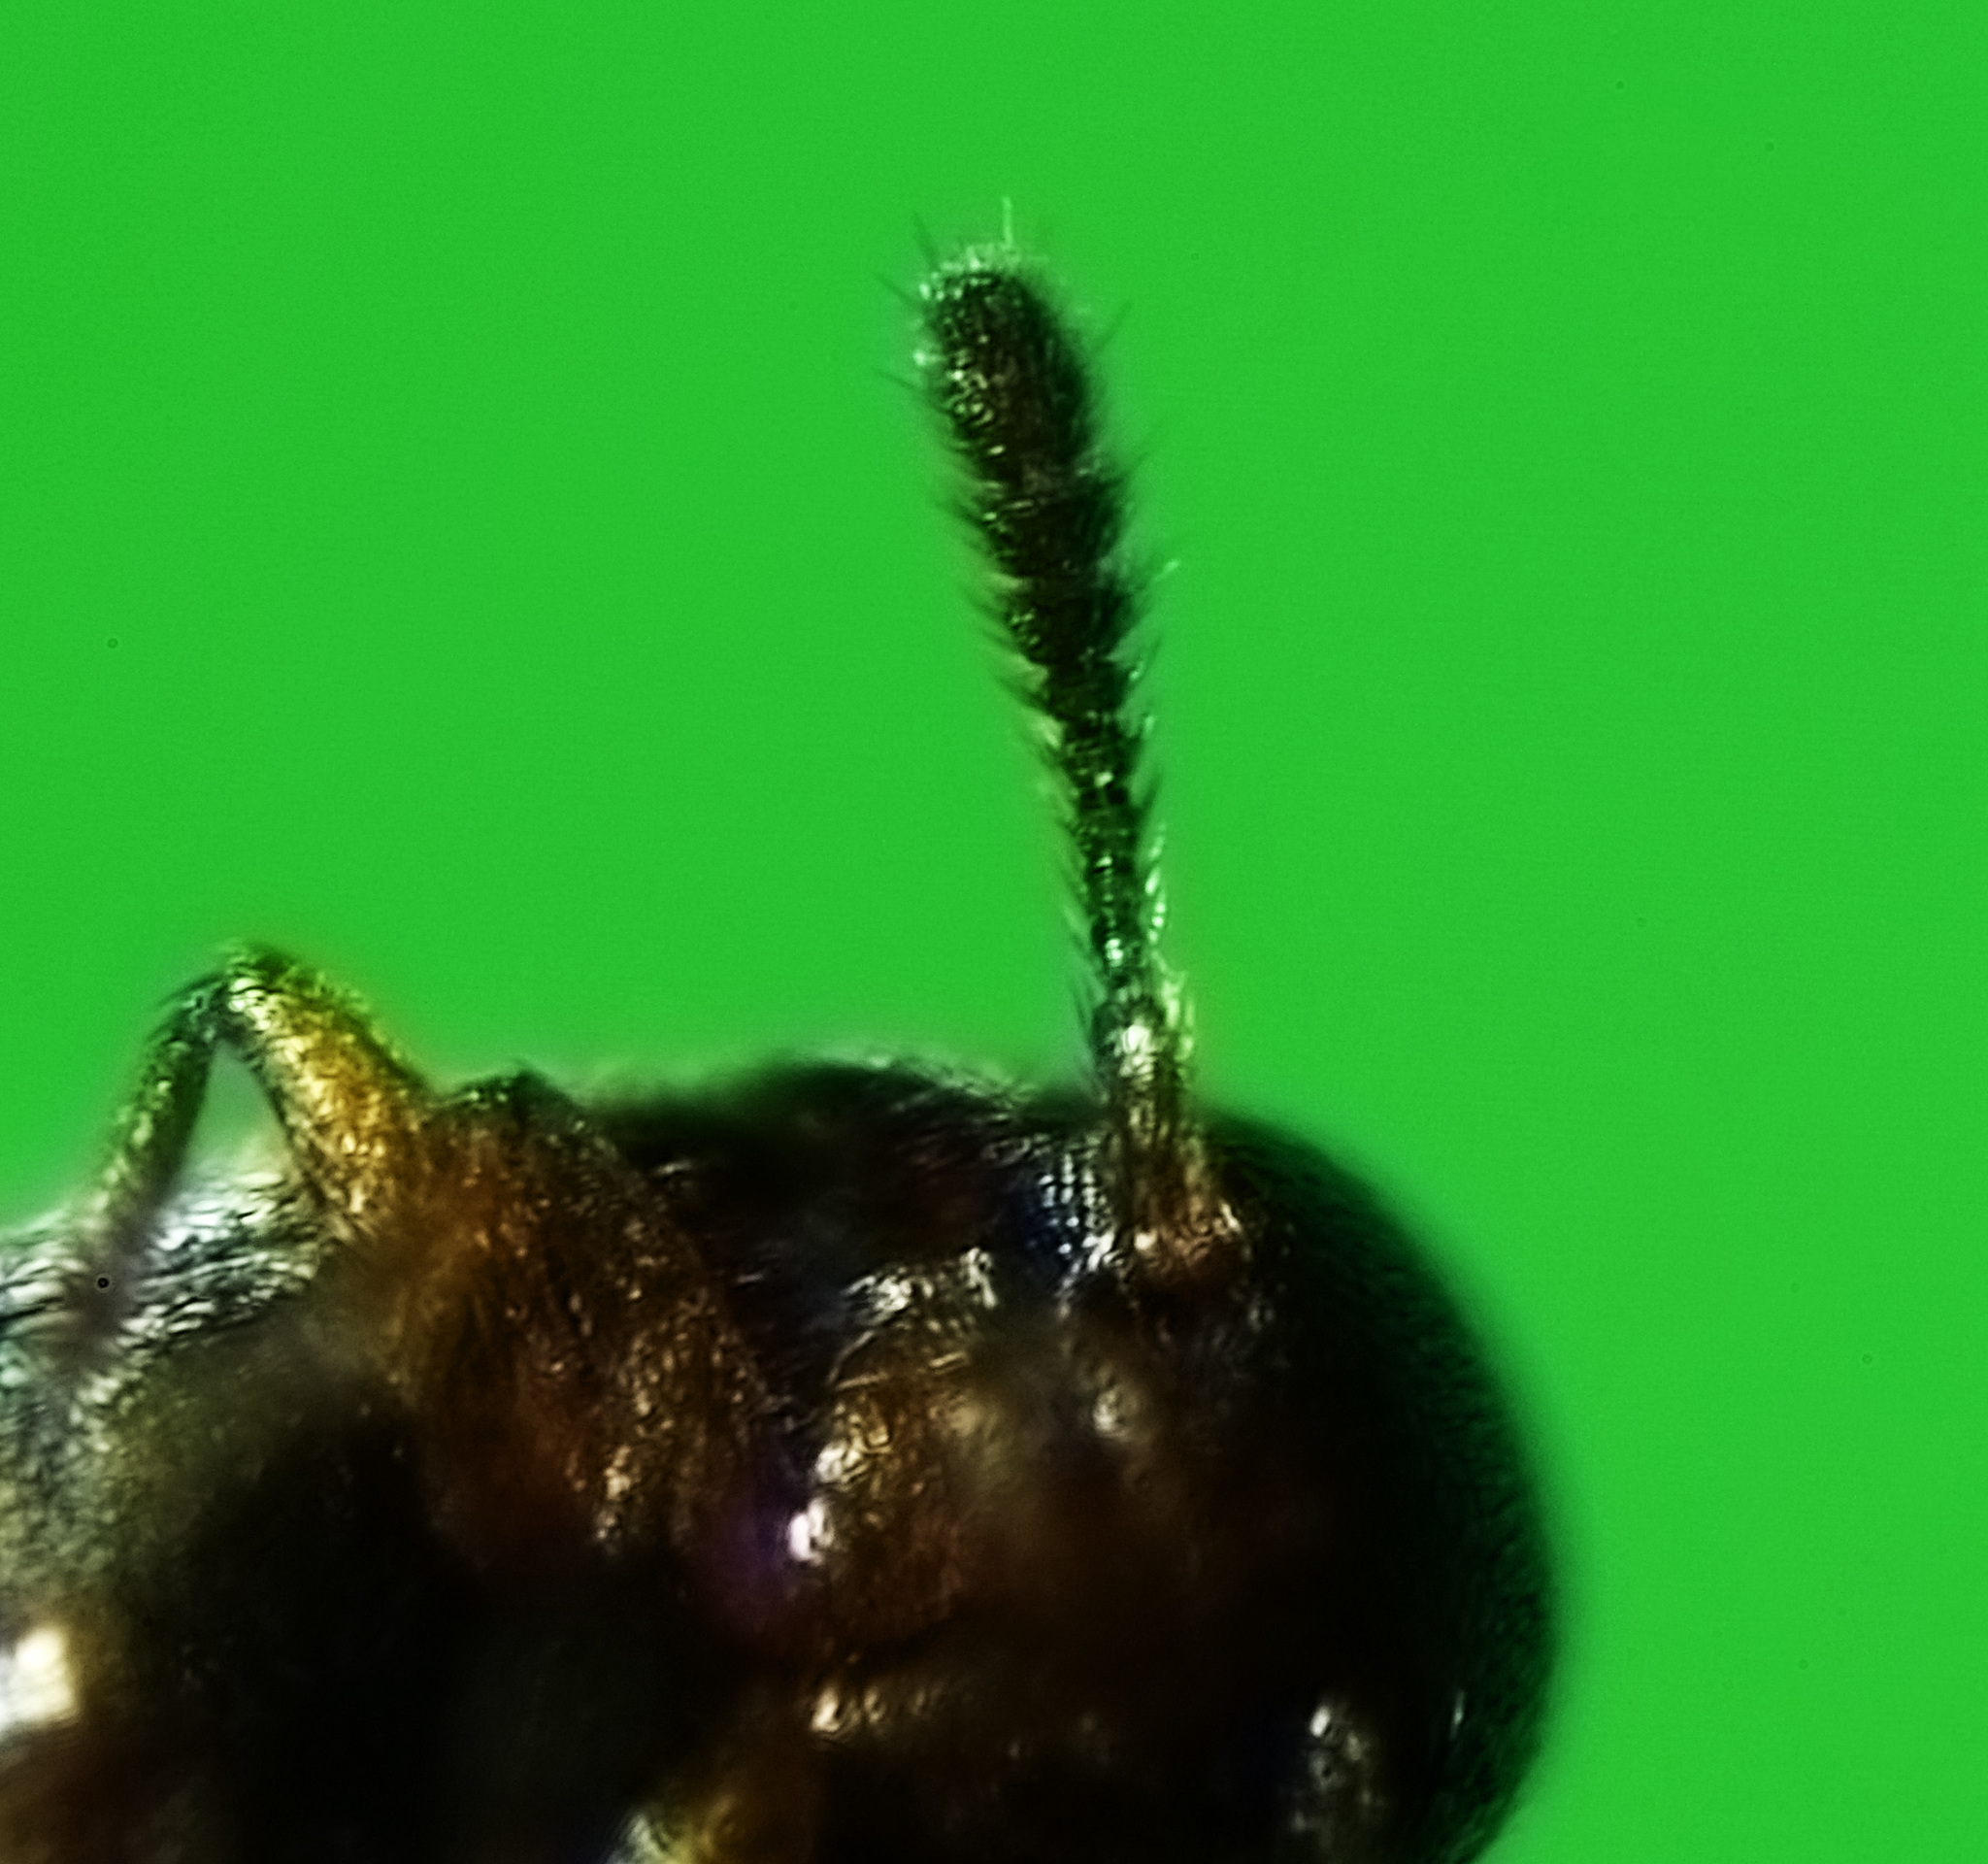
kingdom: Animalia
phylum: Arthropoda
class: Insecta
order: Coleoptera
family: Staphylinidae
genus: Oligota
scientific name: Oligota parva
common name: Rove beetle
